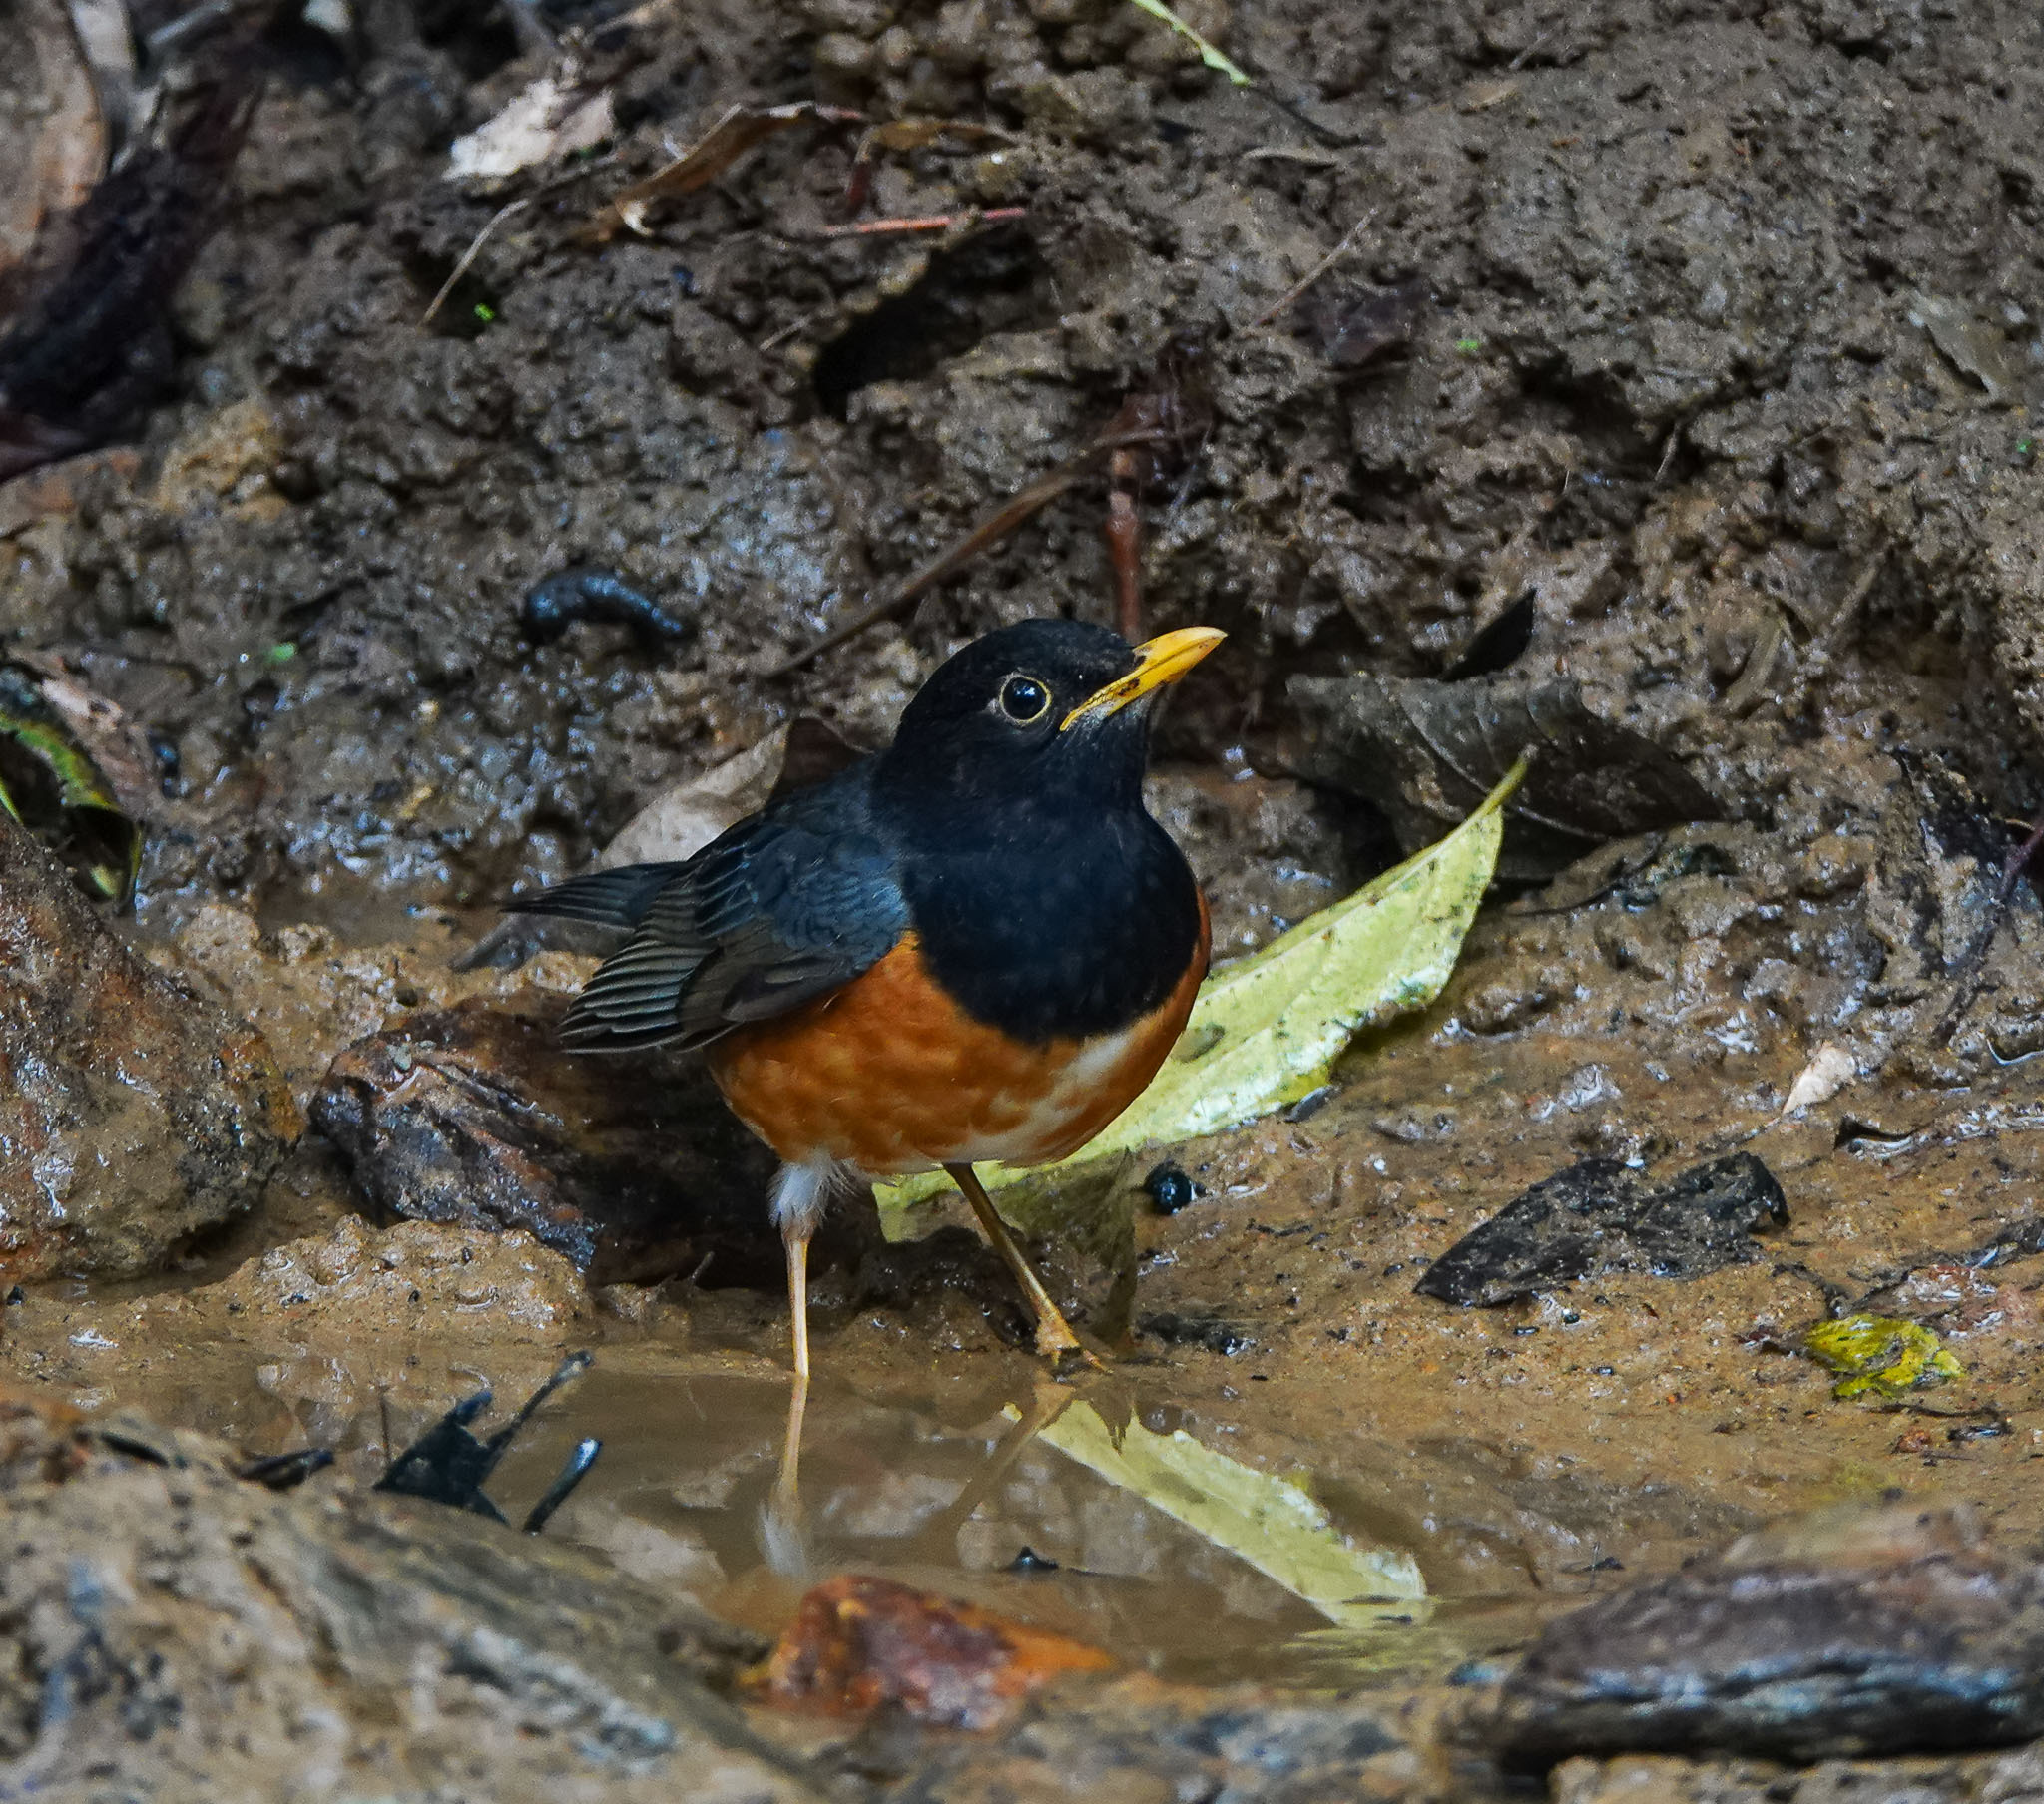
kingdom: Animalia
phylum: Chordata
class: Aves
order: Passeriformes
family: Turdidae
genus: Turdus
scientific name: Turdus dissimilis
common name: Black-breasted thrush
